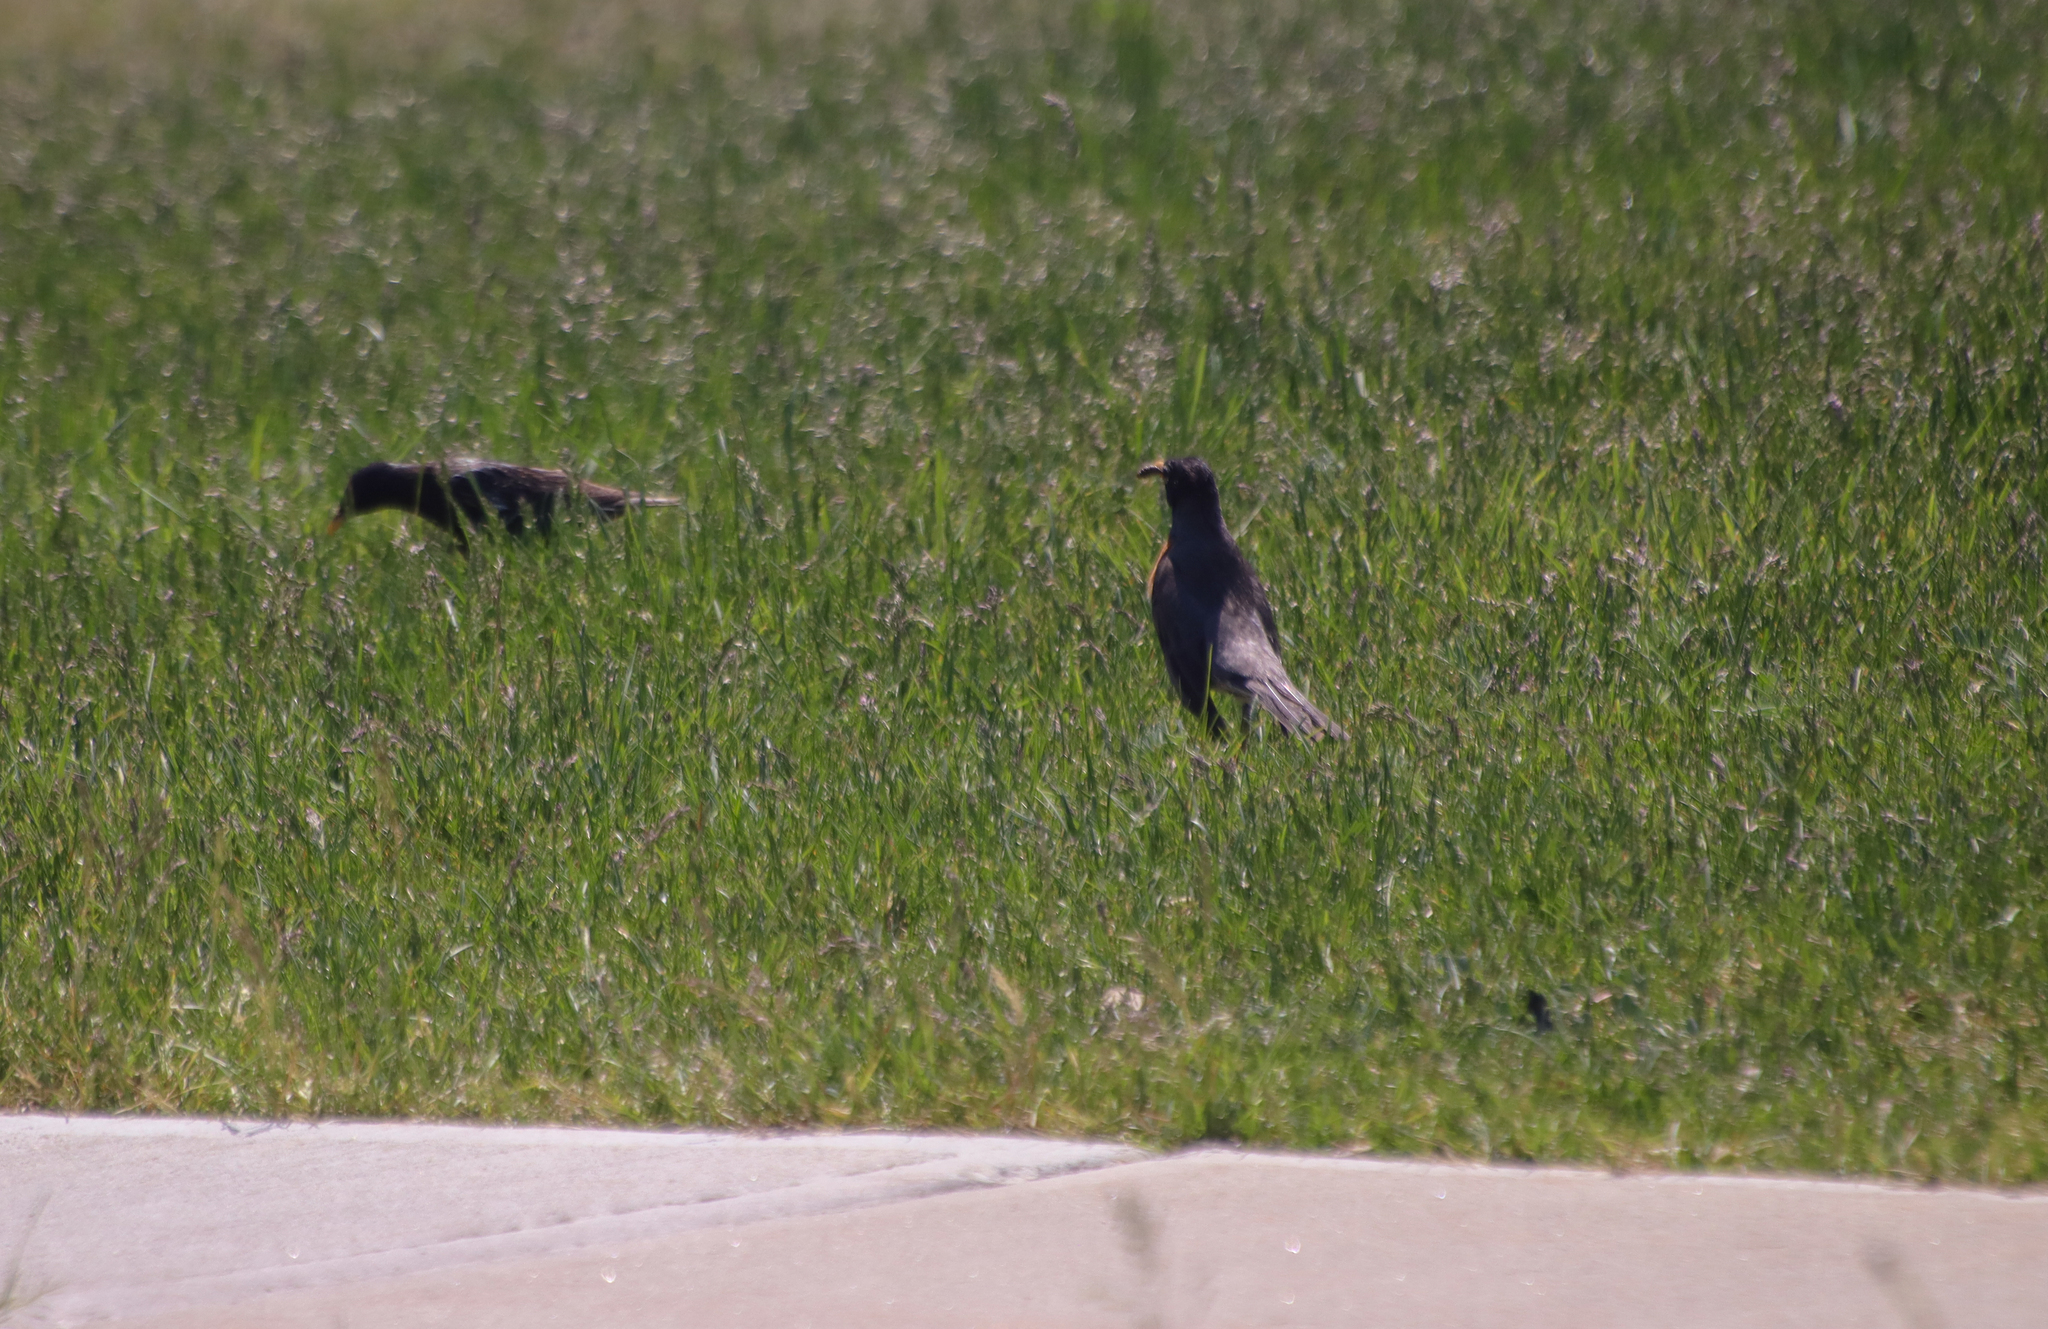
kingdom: Animalia
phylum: Chordata
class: Aves
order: Passeriformes
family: Turdidae
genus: Turdus
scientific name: Turdus migratorius
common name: American robin
